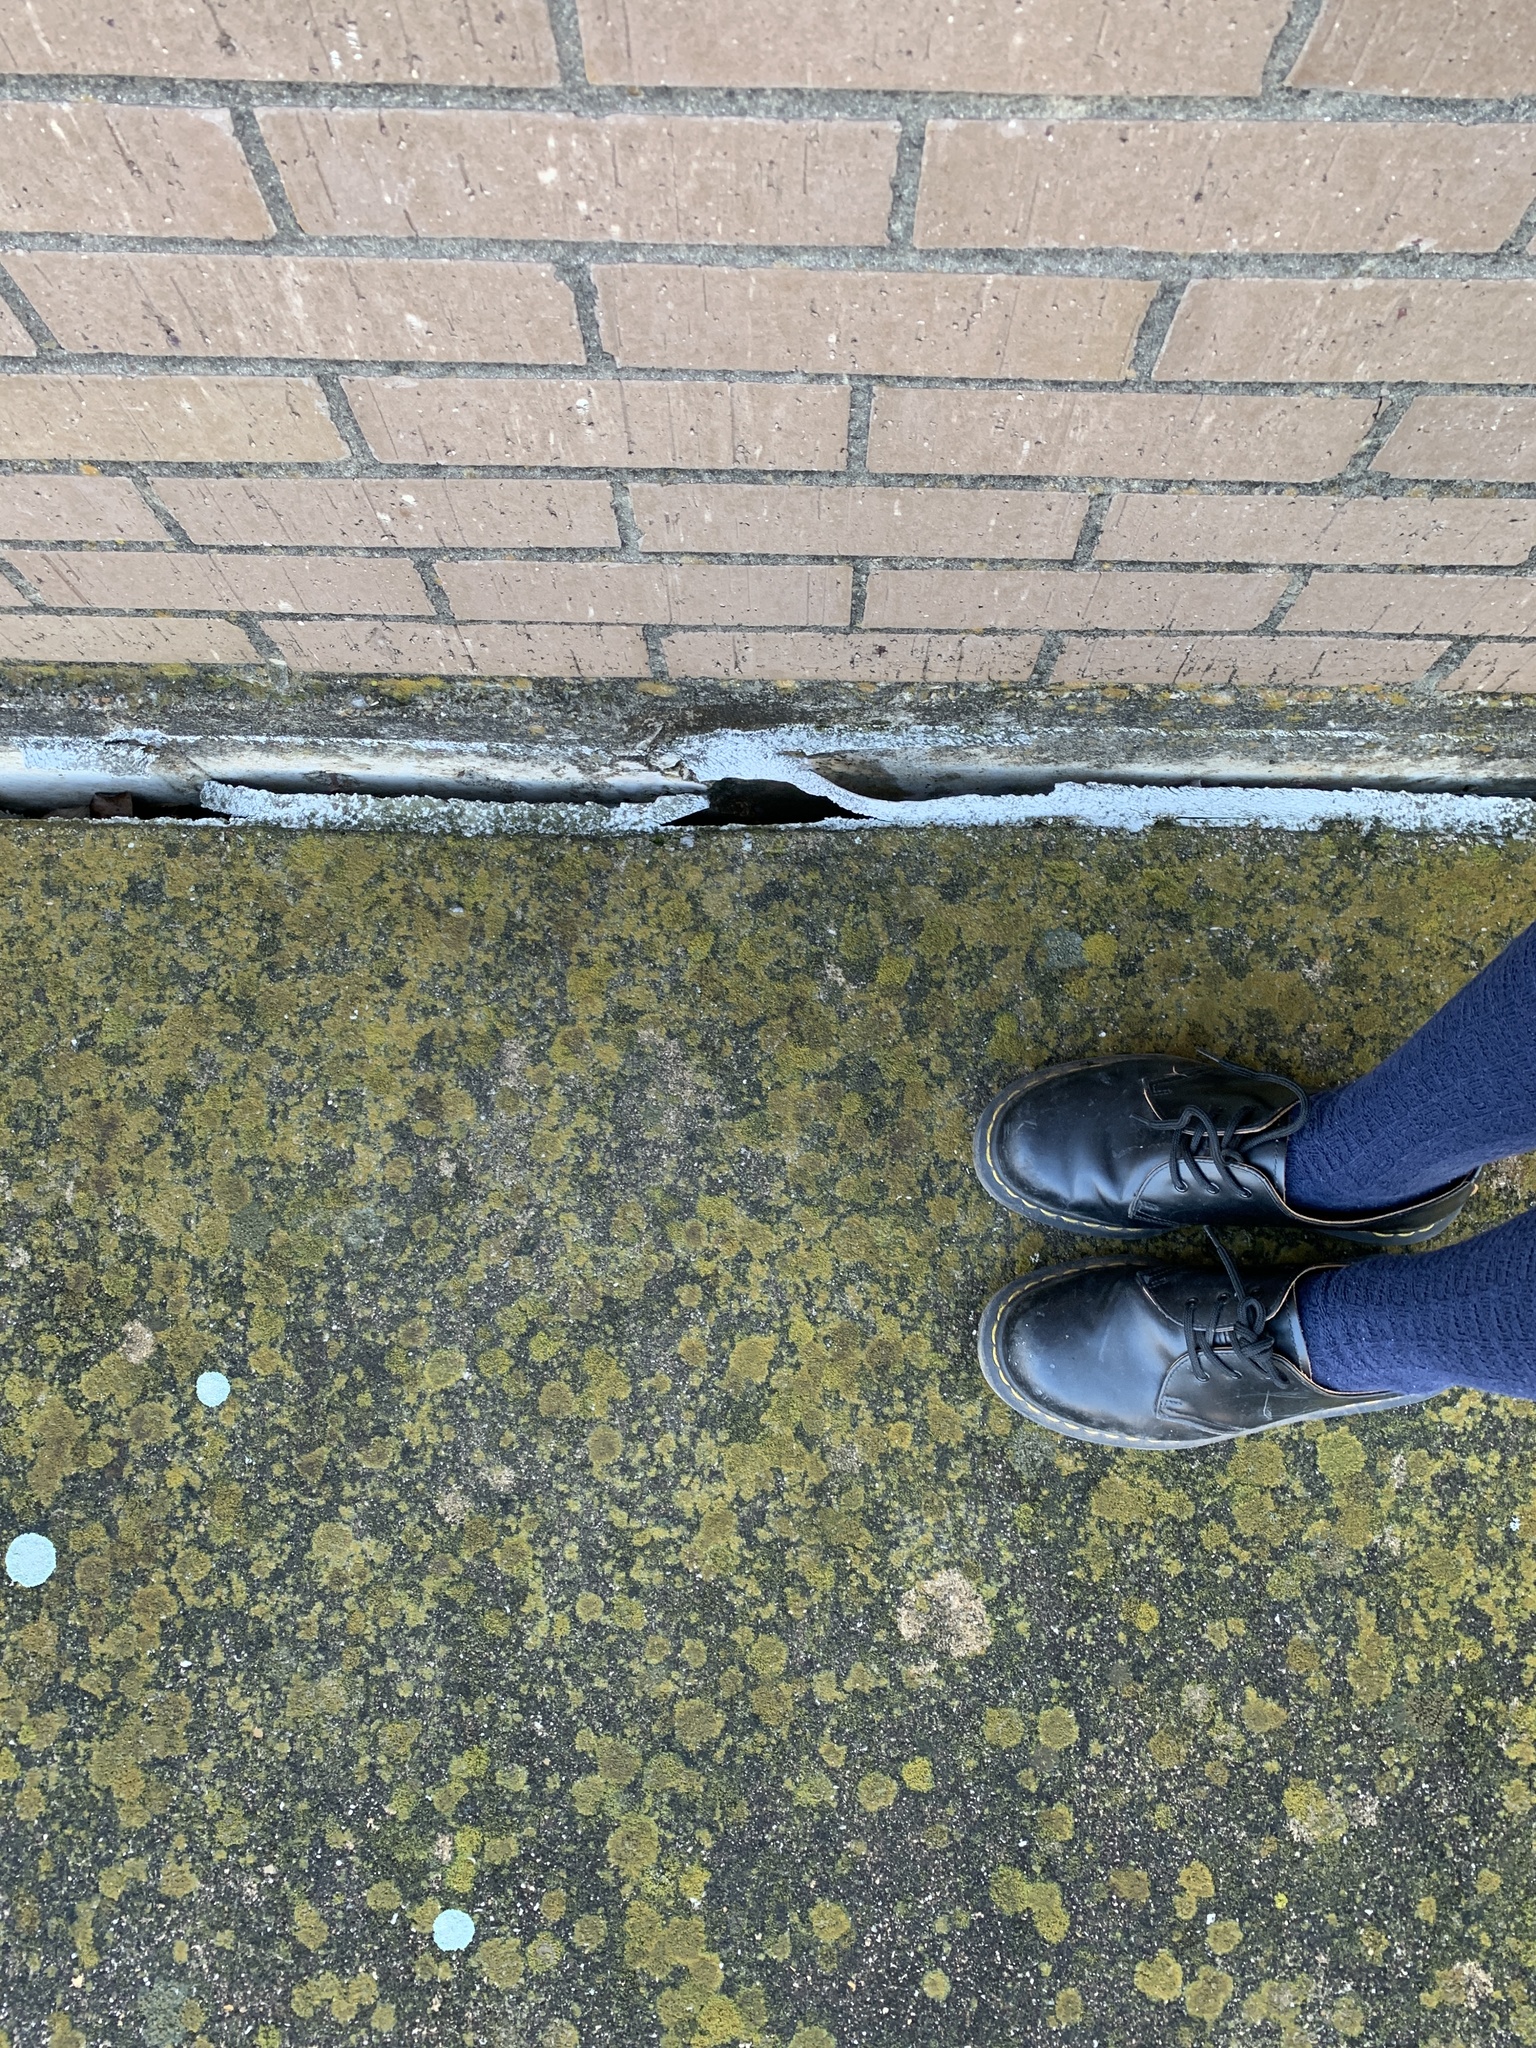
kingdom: Fungi
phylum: Ascomycota
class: Lecanoromycetes
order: Teloschistales
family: Teloschistaceae
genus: Xanthocarpia
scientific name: Xanthocarpia feracissima
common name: Sidewalk firedot
